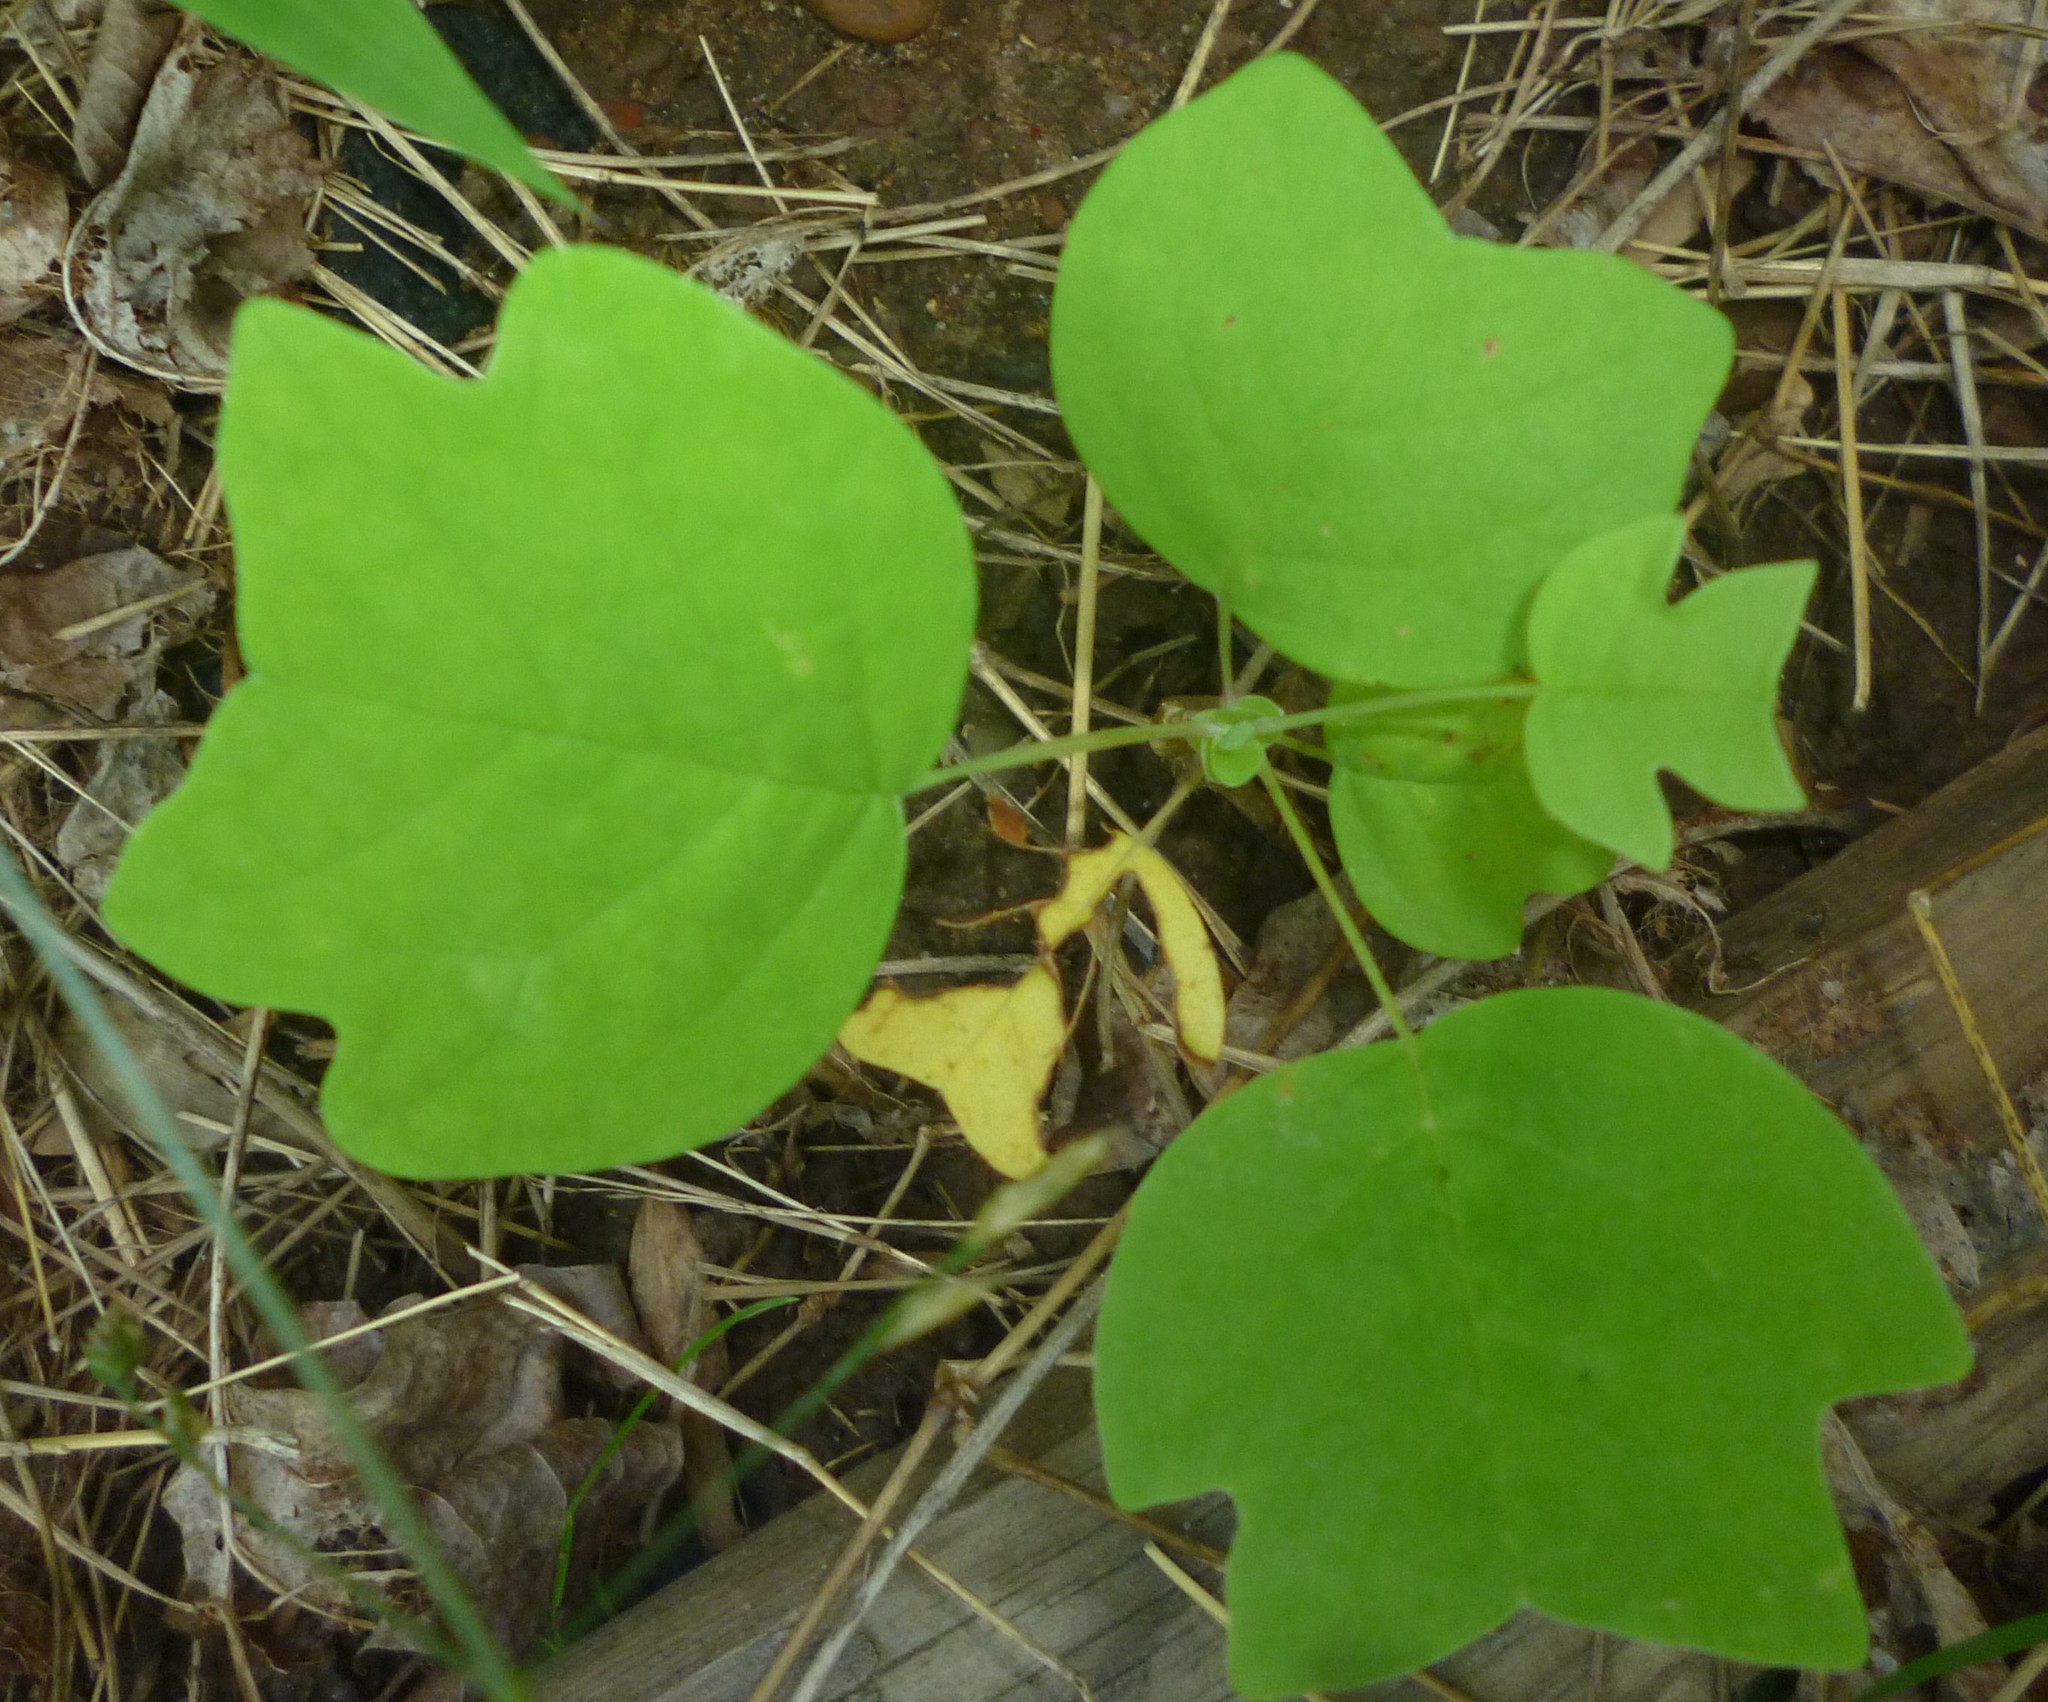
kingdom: Plantae
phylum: Tracheophyta
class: Magnoliopsida
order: Magnoliales
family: Magnoliaceae
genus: Liriodendron
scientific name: Liriodendron tulipifera
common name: Tulip tree
